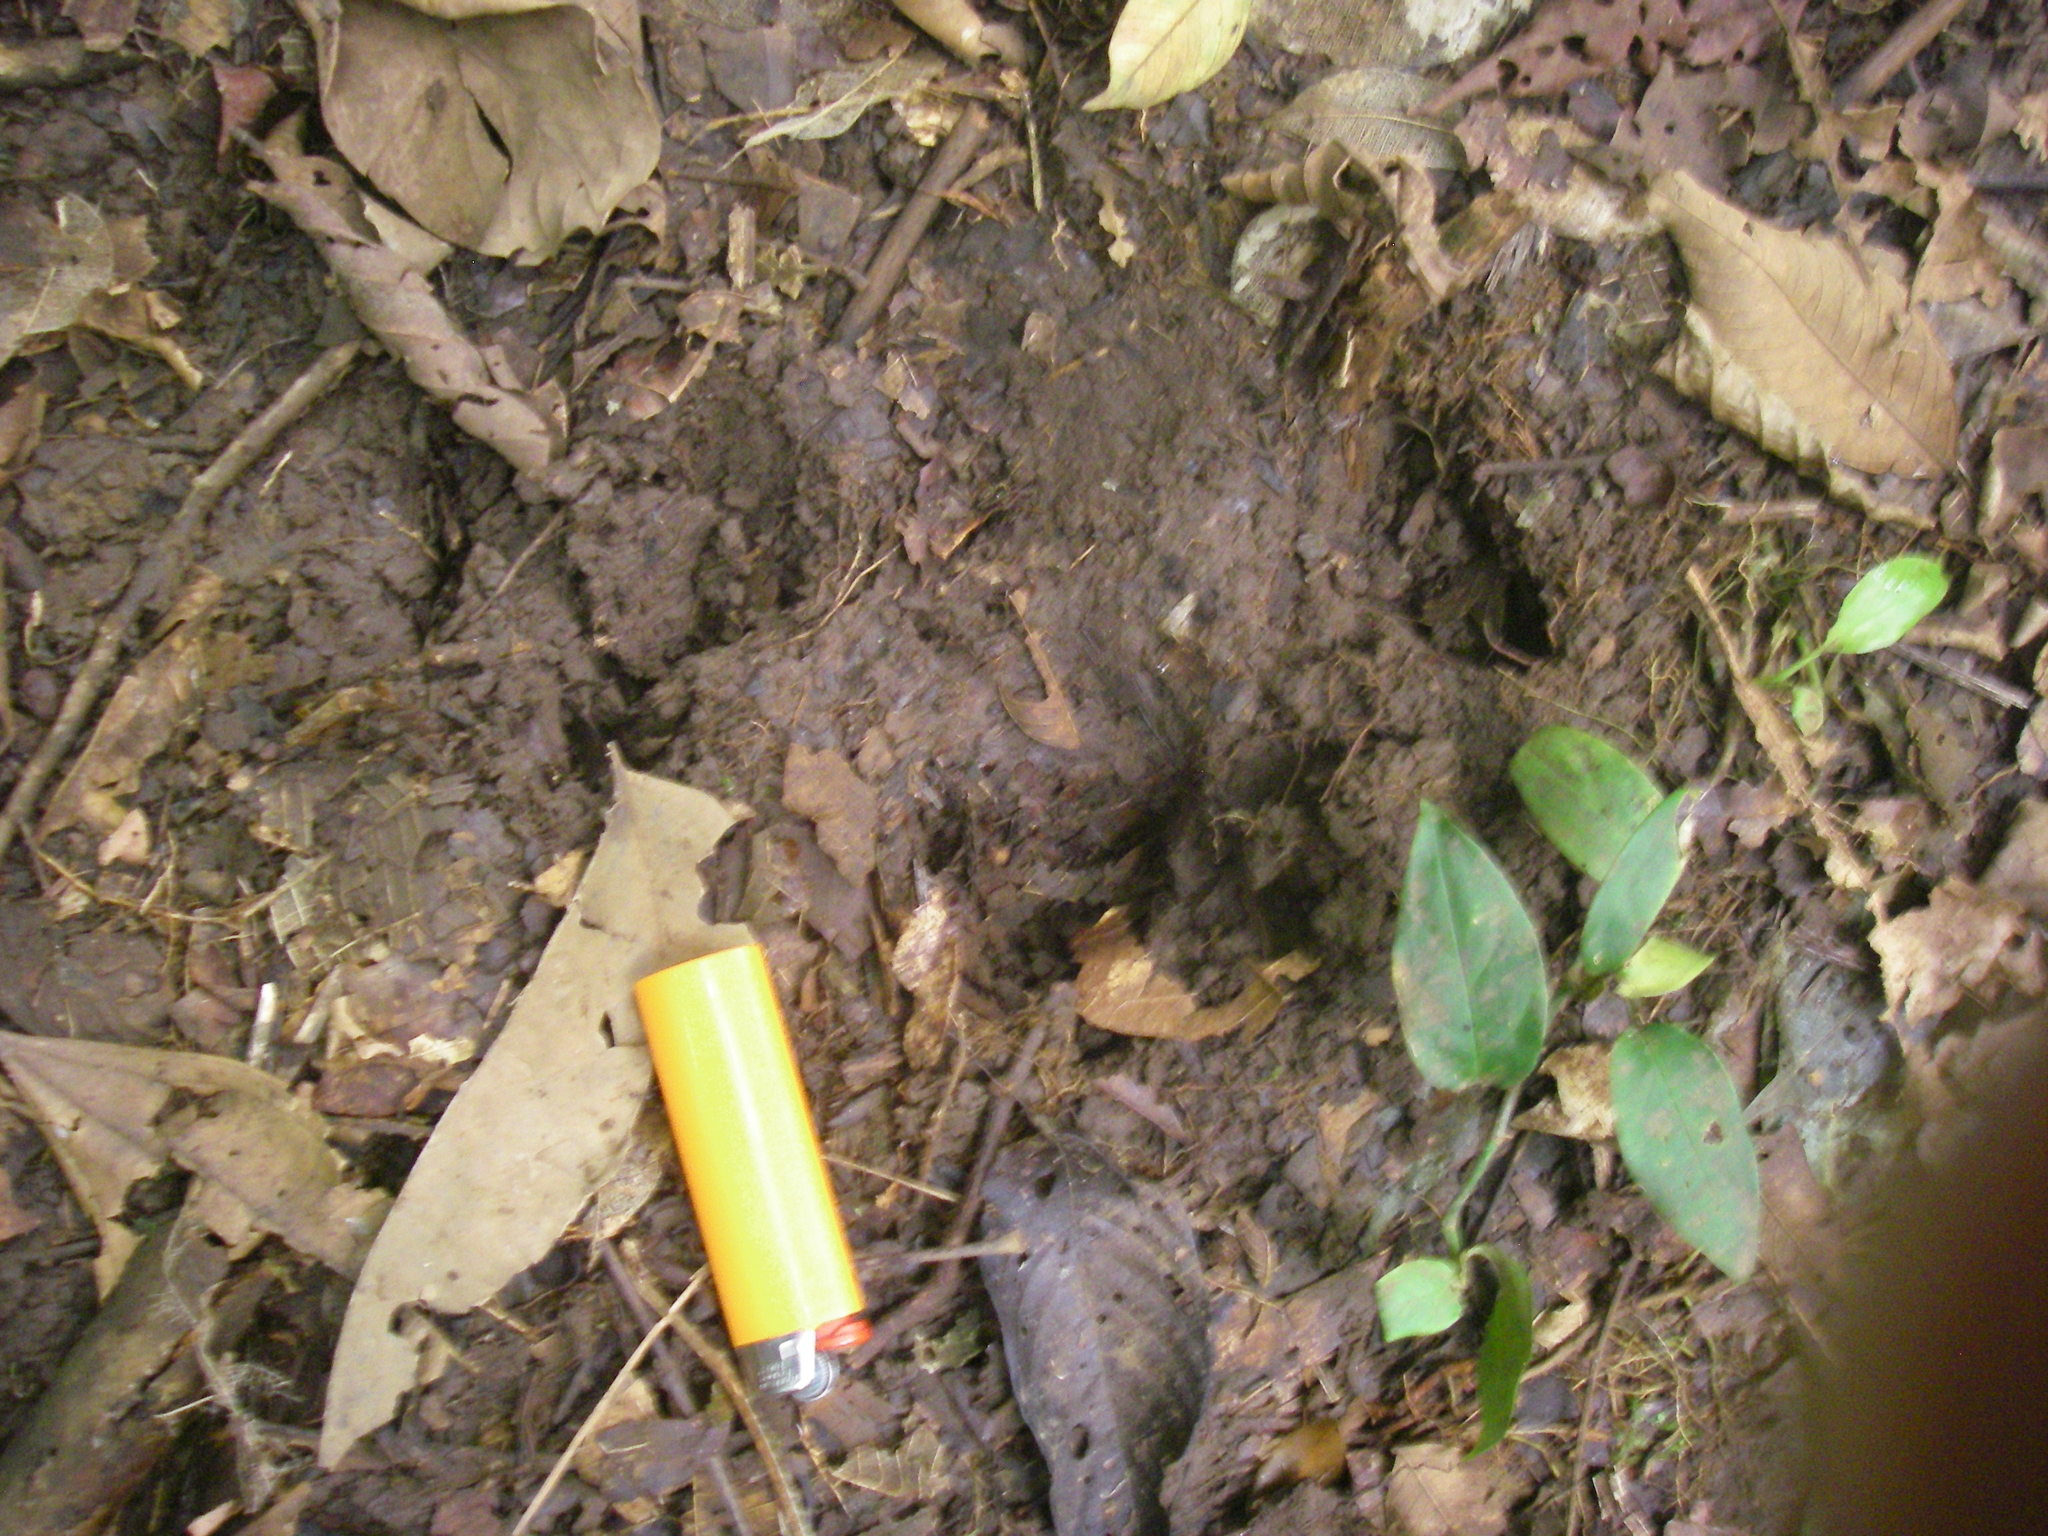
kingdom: Animalia
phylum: Chordata
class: Mammalia
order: Perissodactyla
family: Tapiridae
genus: Tapirella
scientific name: Tapirella bairdii
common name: Baird's tapir
